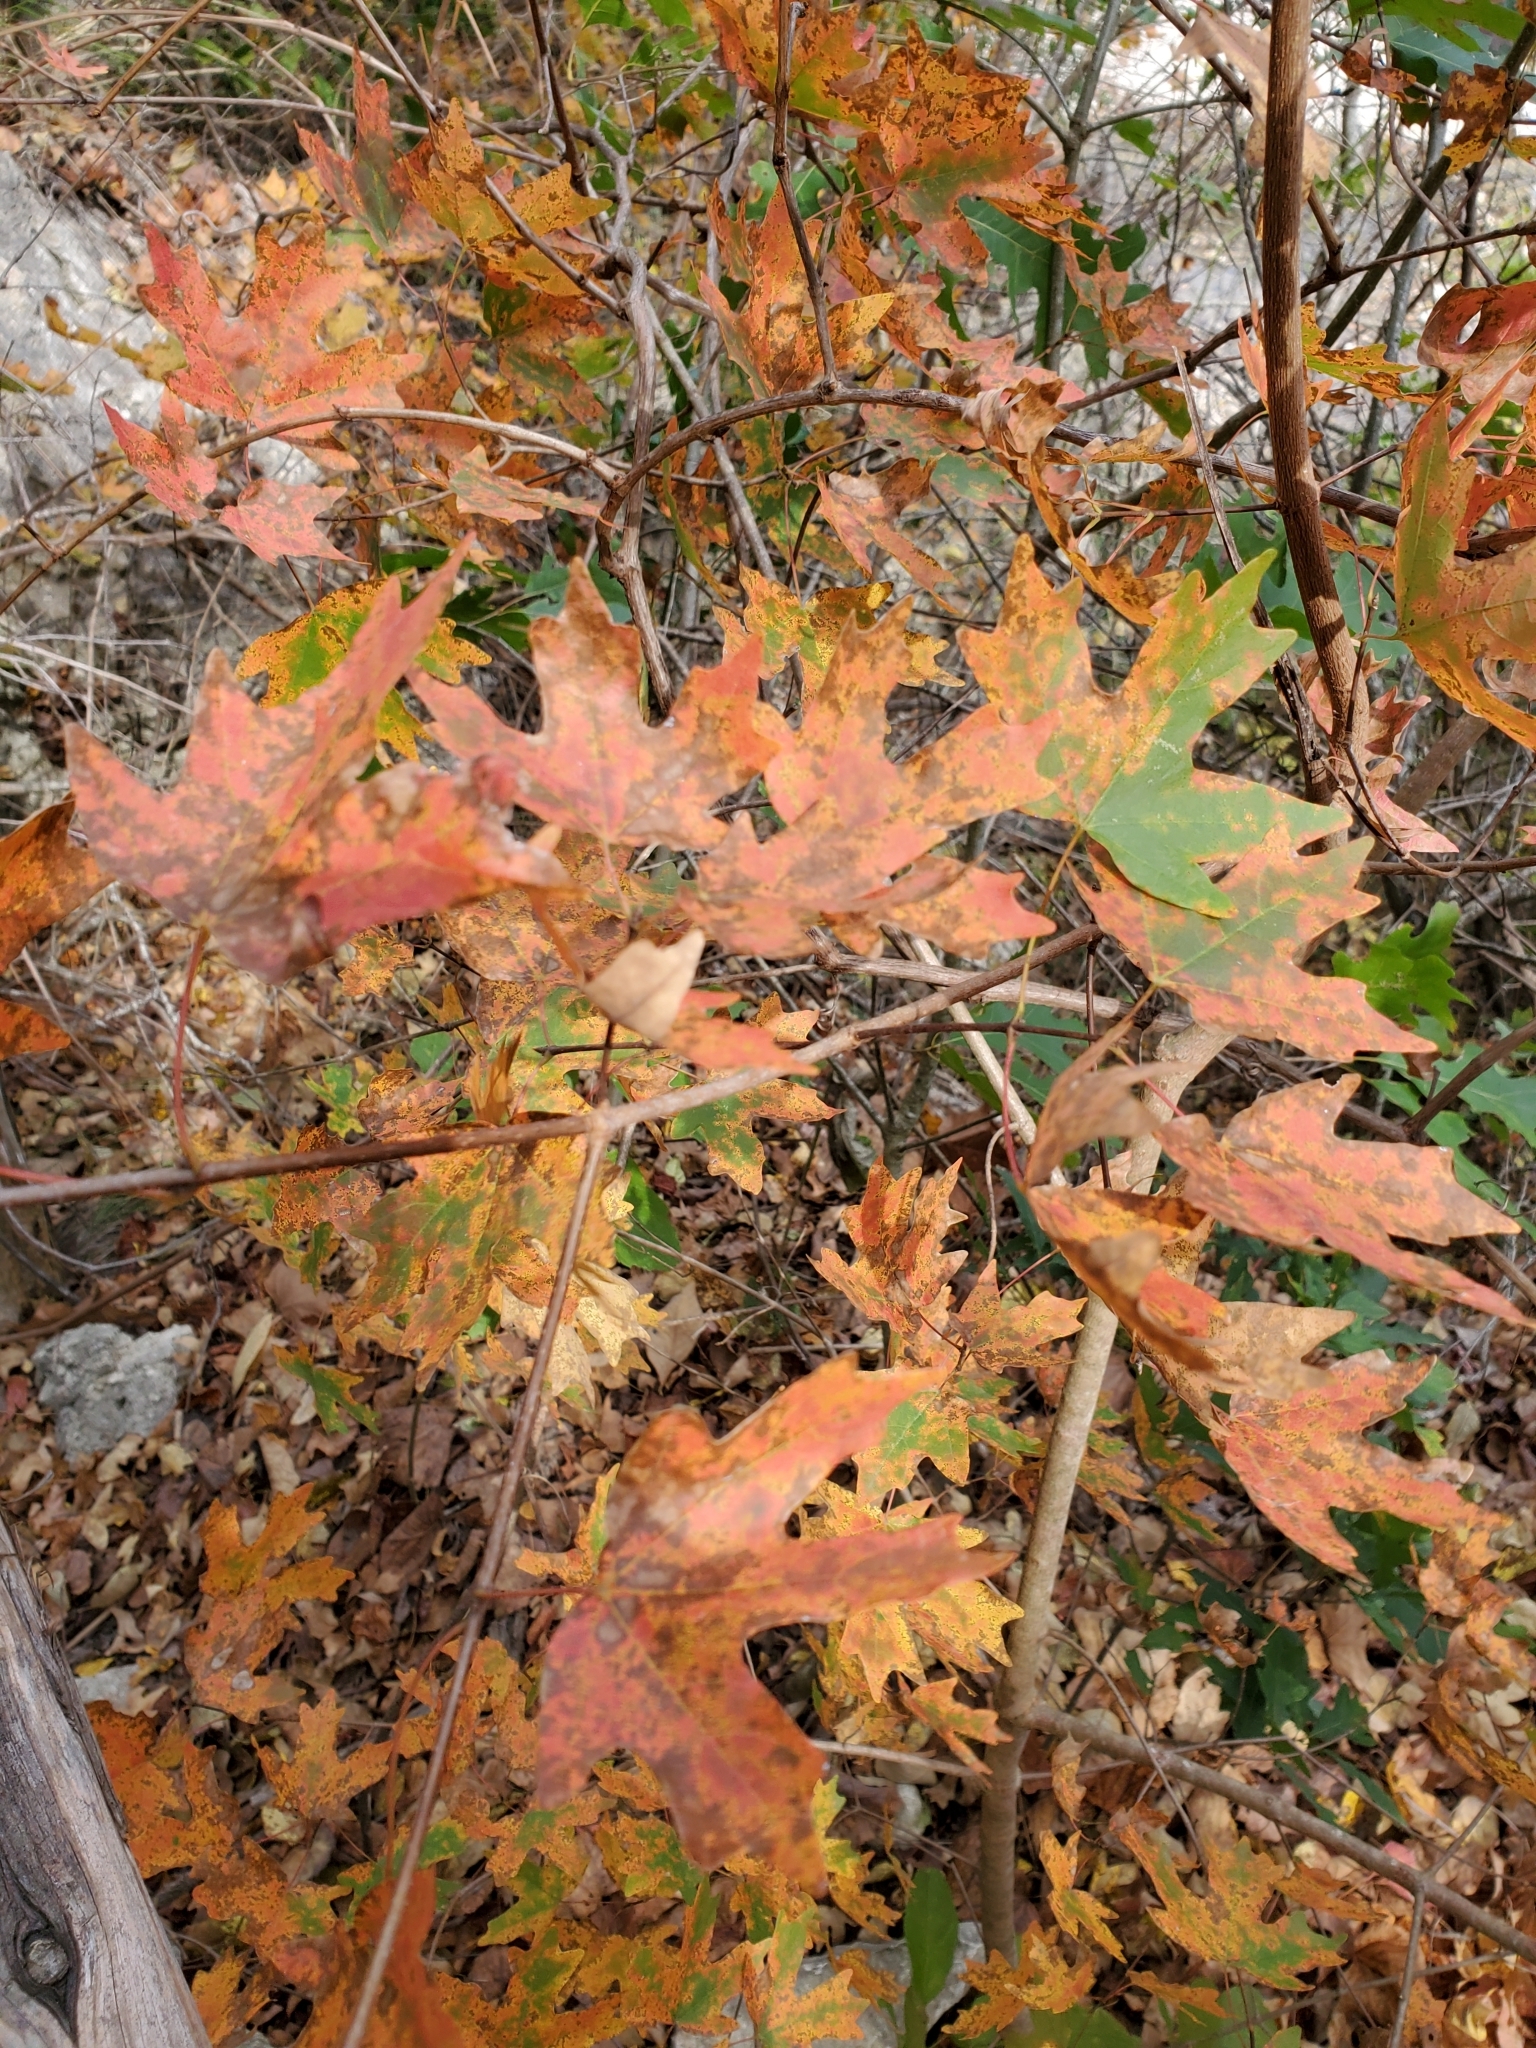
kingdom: Plantae
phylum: Tracheophyta
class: Magnoliopsida
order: Sapindales
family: Sapindaceae
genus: Acer
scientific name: Acer grandidentatum
